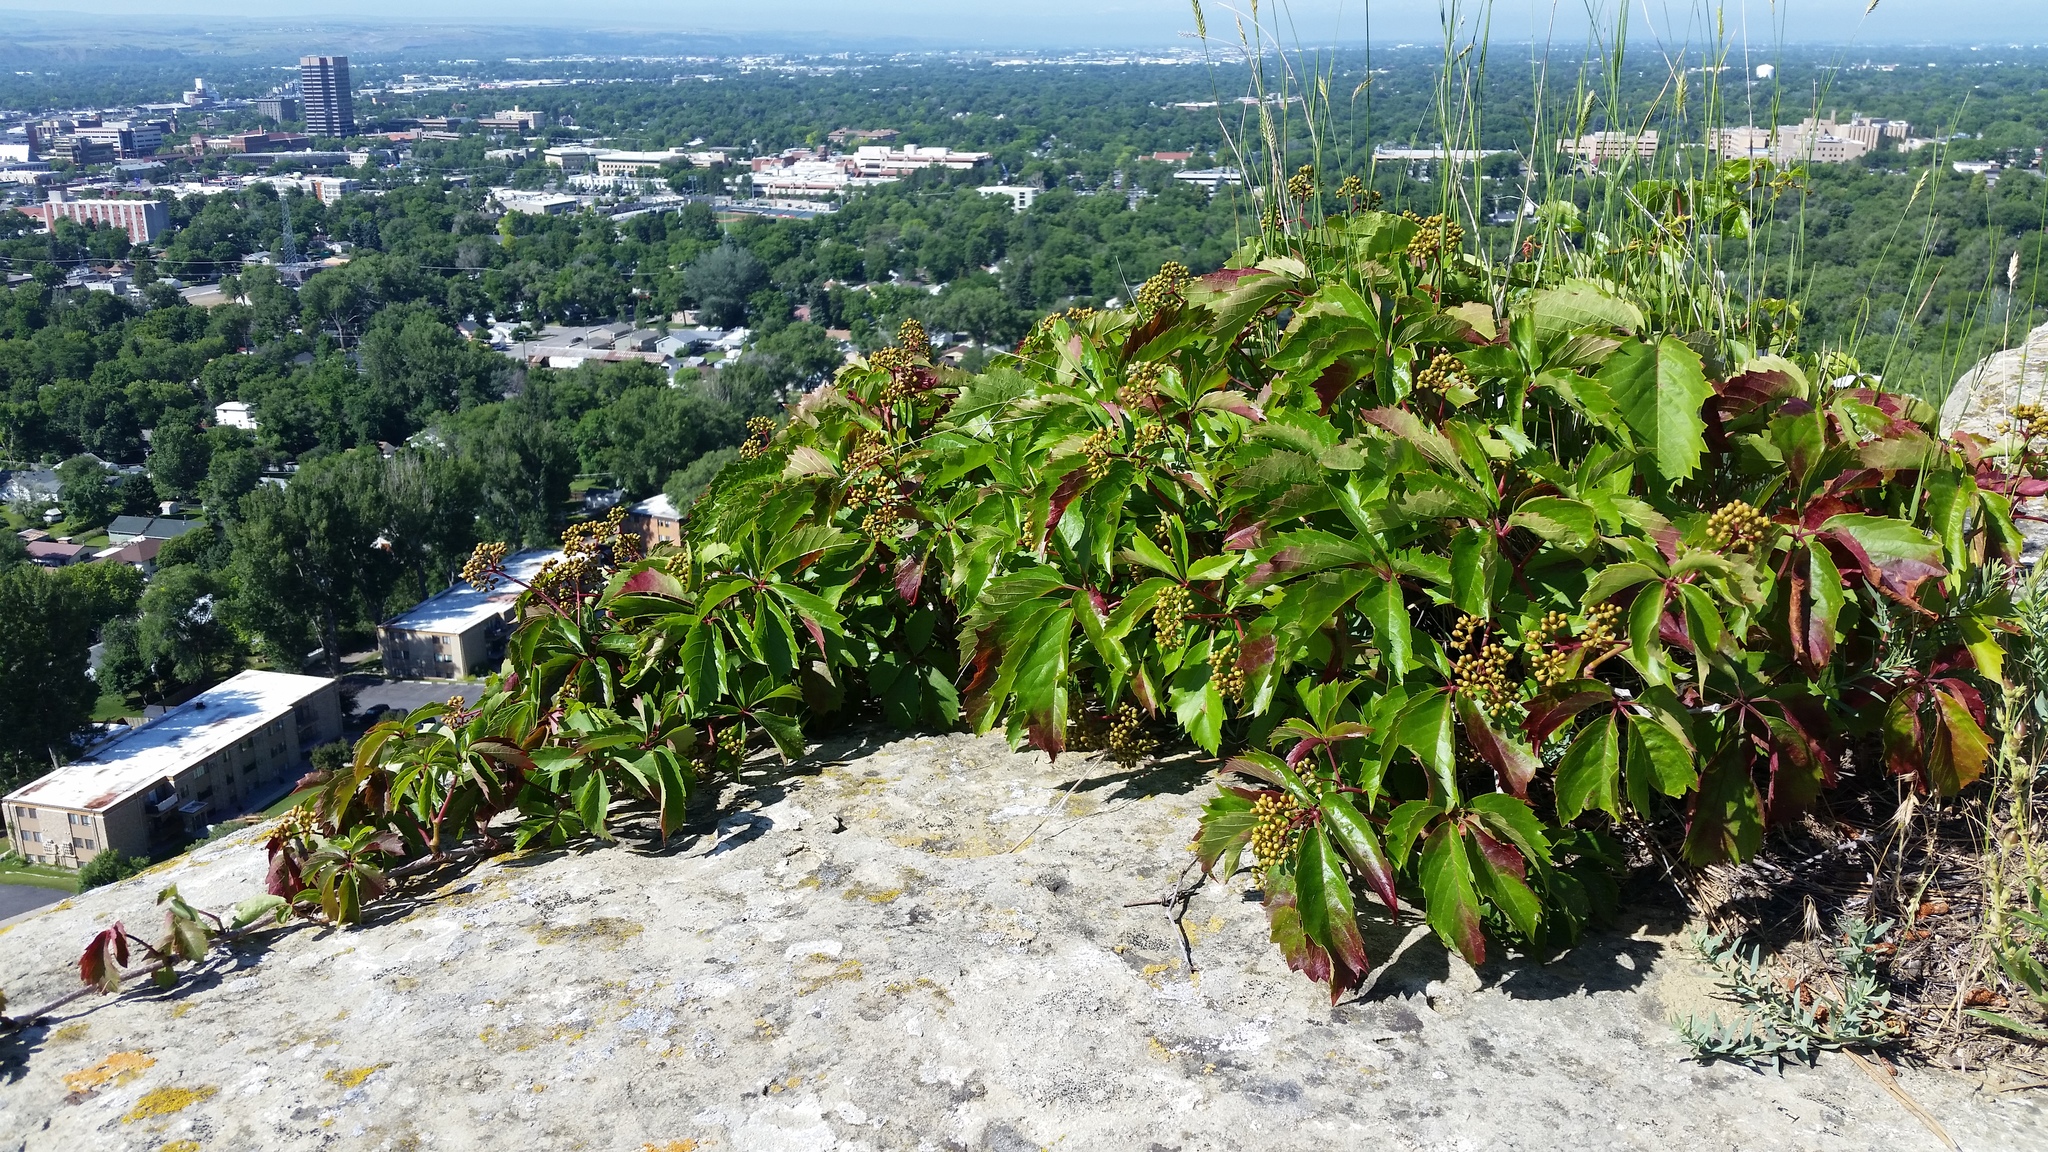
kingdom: Plantae
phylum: Tracheophyta
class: Magnoliopsida
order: Vitales
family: Vitaceae
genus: Parthenocissus
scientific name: Parthenocissus quinquefolia
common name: Virginia-creeper
